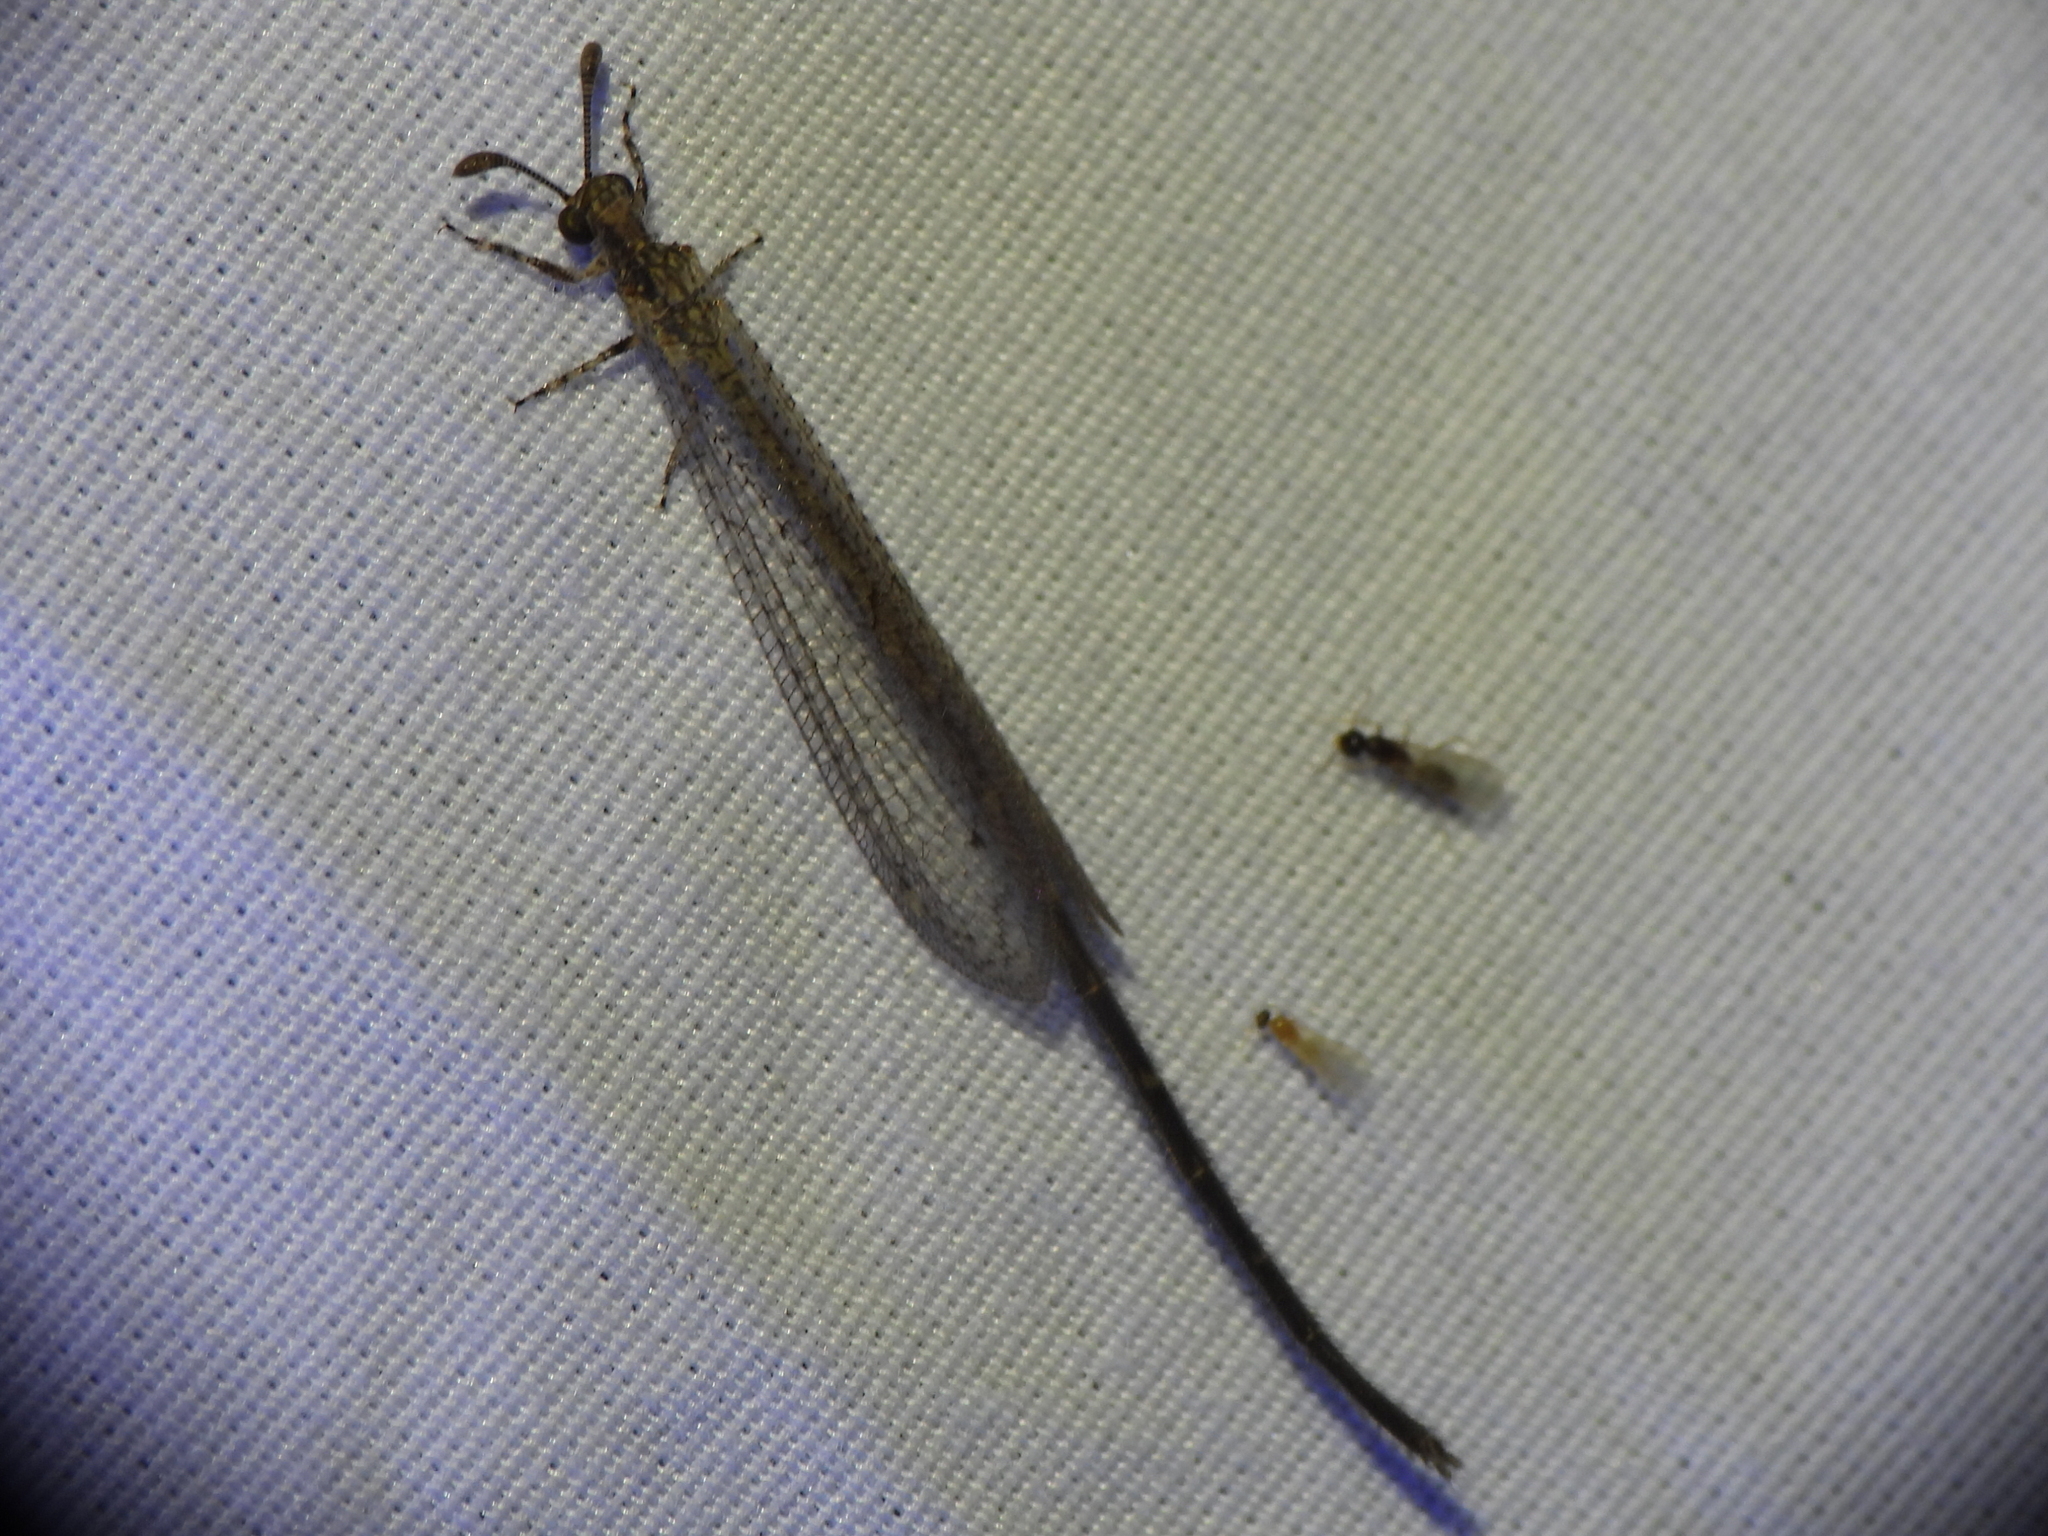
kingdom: Animalia
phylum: Arthropoda
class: Insecta
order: Neuroptera
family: Myrmeleontidae
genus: Peruveleon
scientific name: Peruveleon dorsalis
